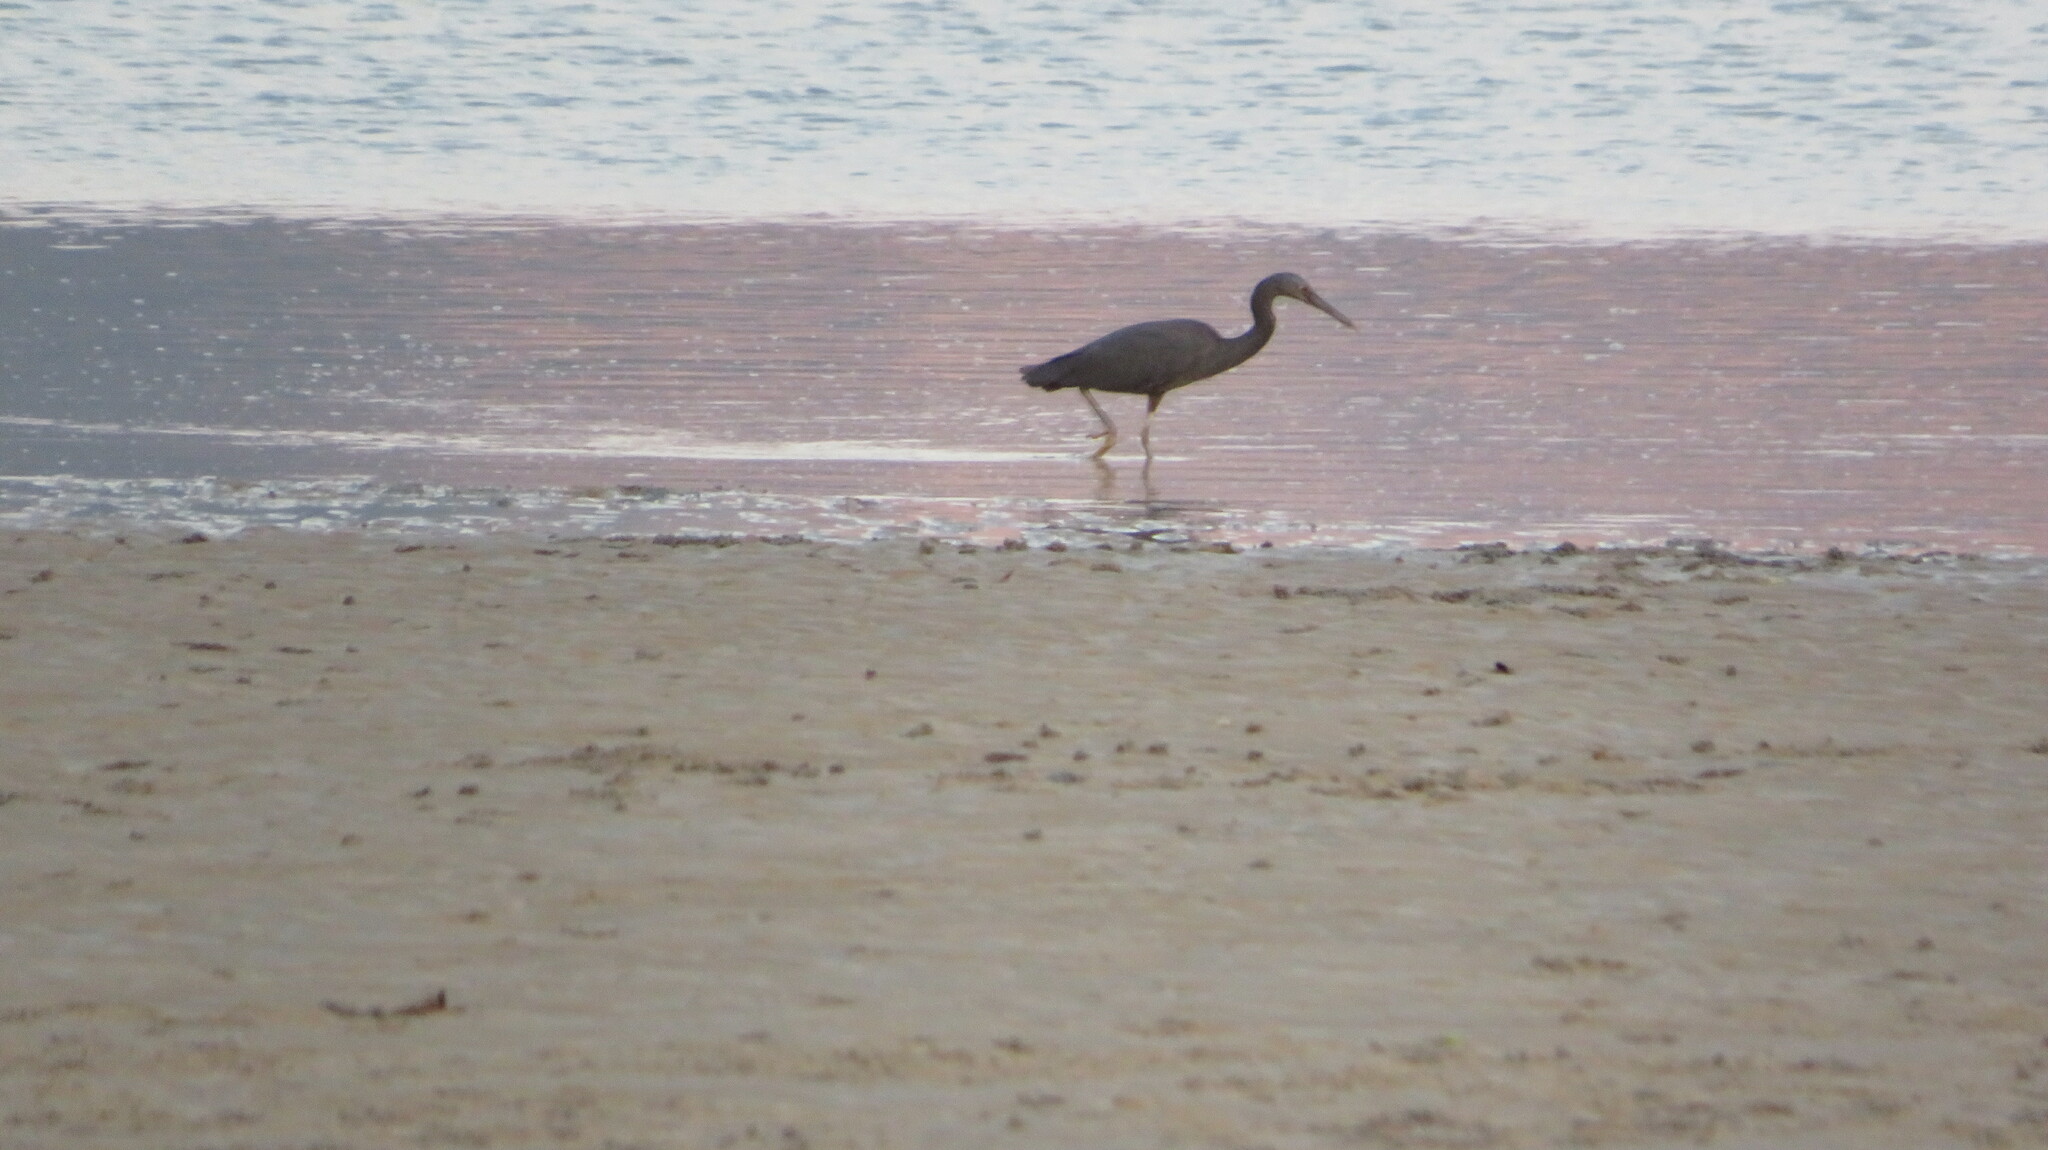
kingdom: Animalia
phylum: Chordata
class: Aves
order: Pelecaniformes
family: Ardeidae
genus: Egretta
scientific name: Egretta sacra
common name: Pacific reef heron
